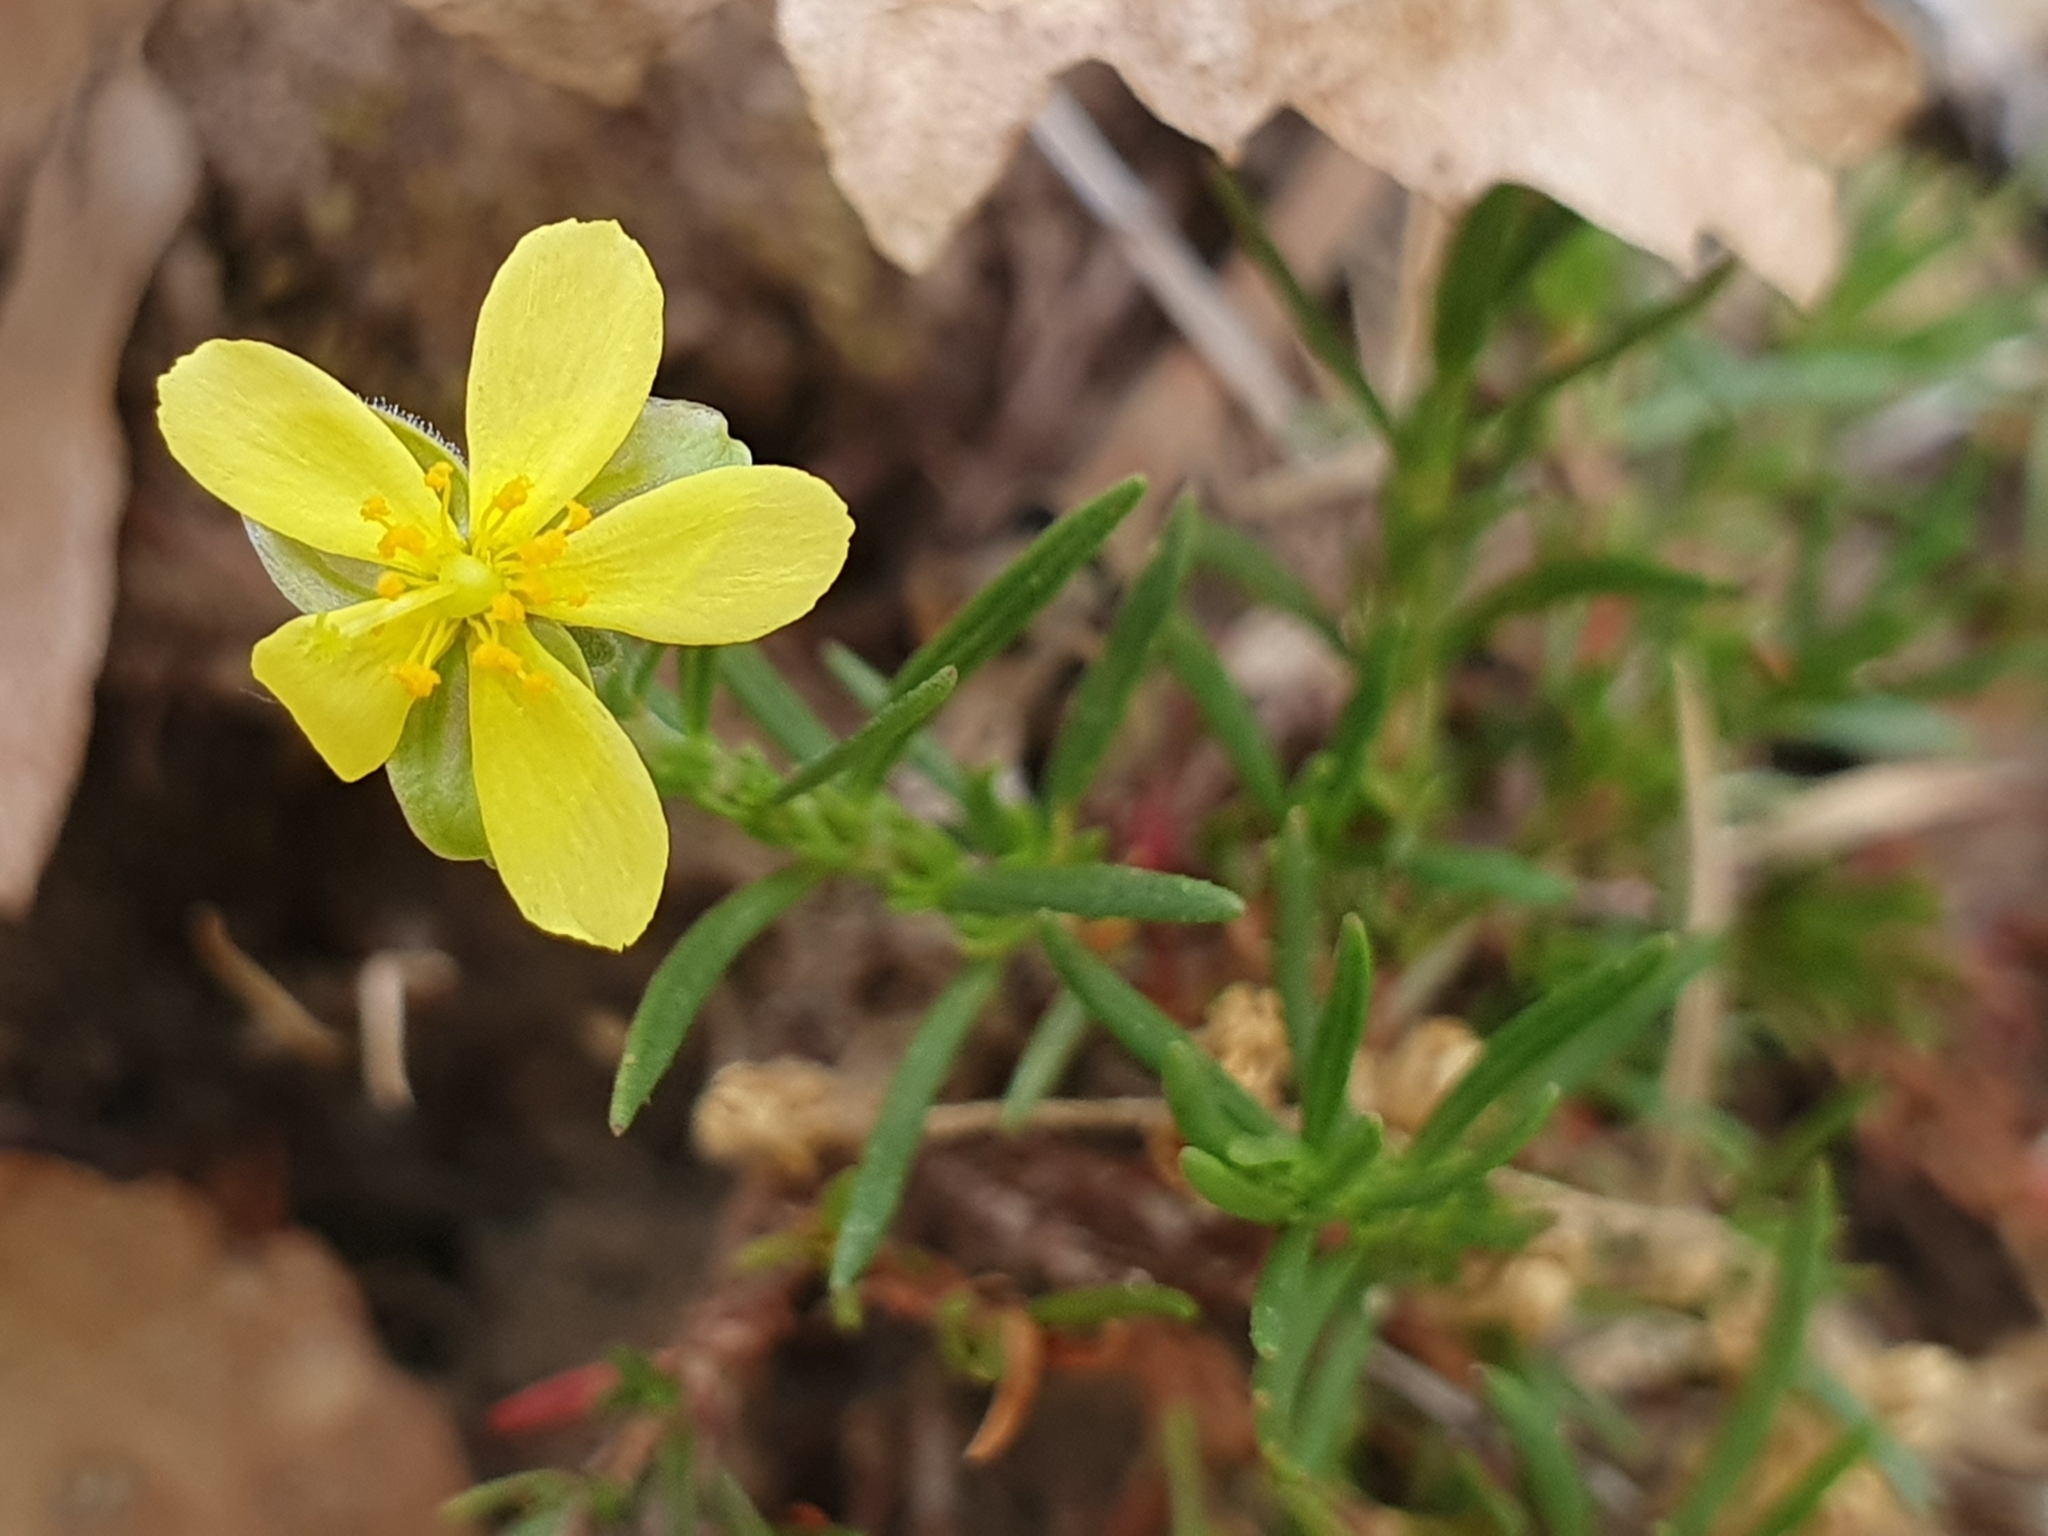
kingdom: Plantae
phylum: Tracheophyta
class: Magnoliopsida
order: Malvales
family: Cistaceae
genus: Fumana
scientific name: Fumana juniperina
